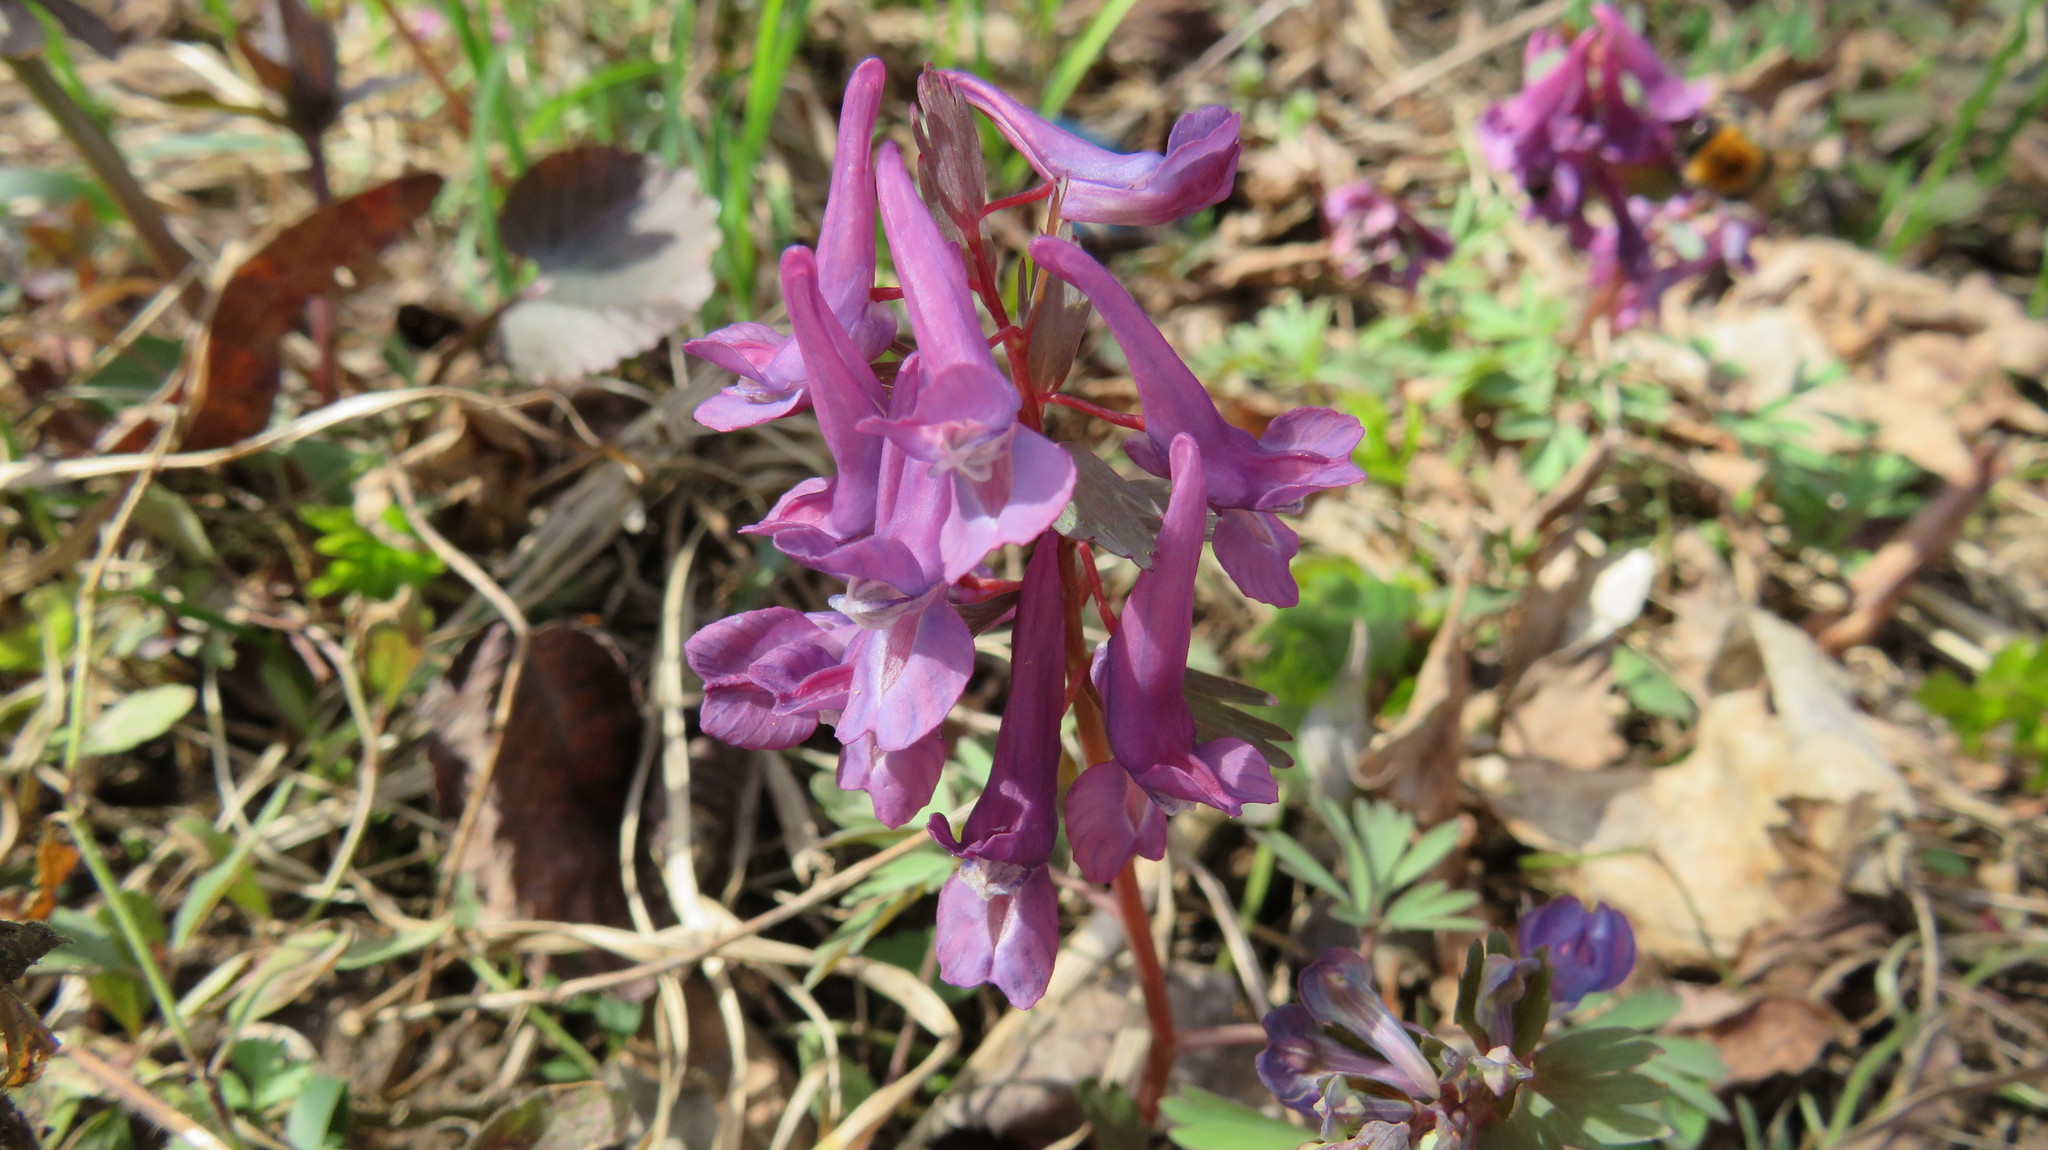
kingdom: Plantae
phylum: Tracheophyta
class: Magnoliopsida
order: Ranunculales
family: Papaveraceae
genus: Corydalis
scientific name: Corydalis solida
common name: Bird-in-a-bush
